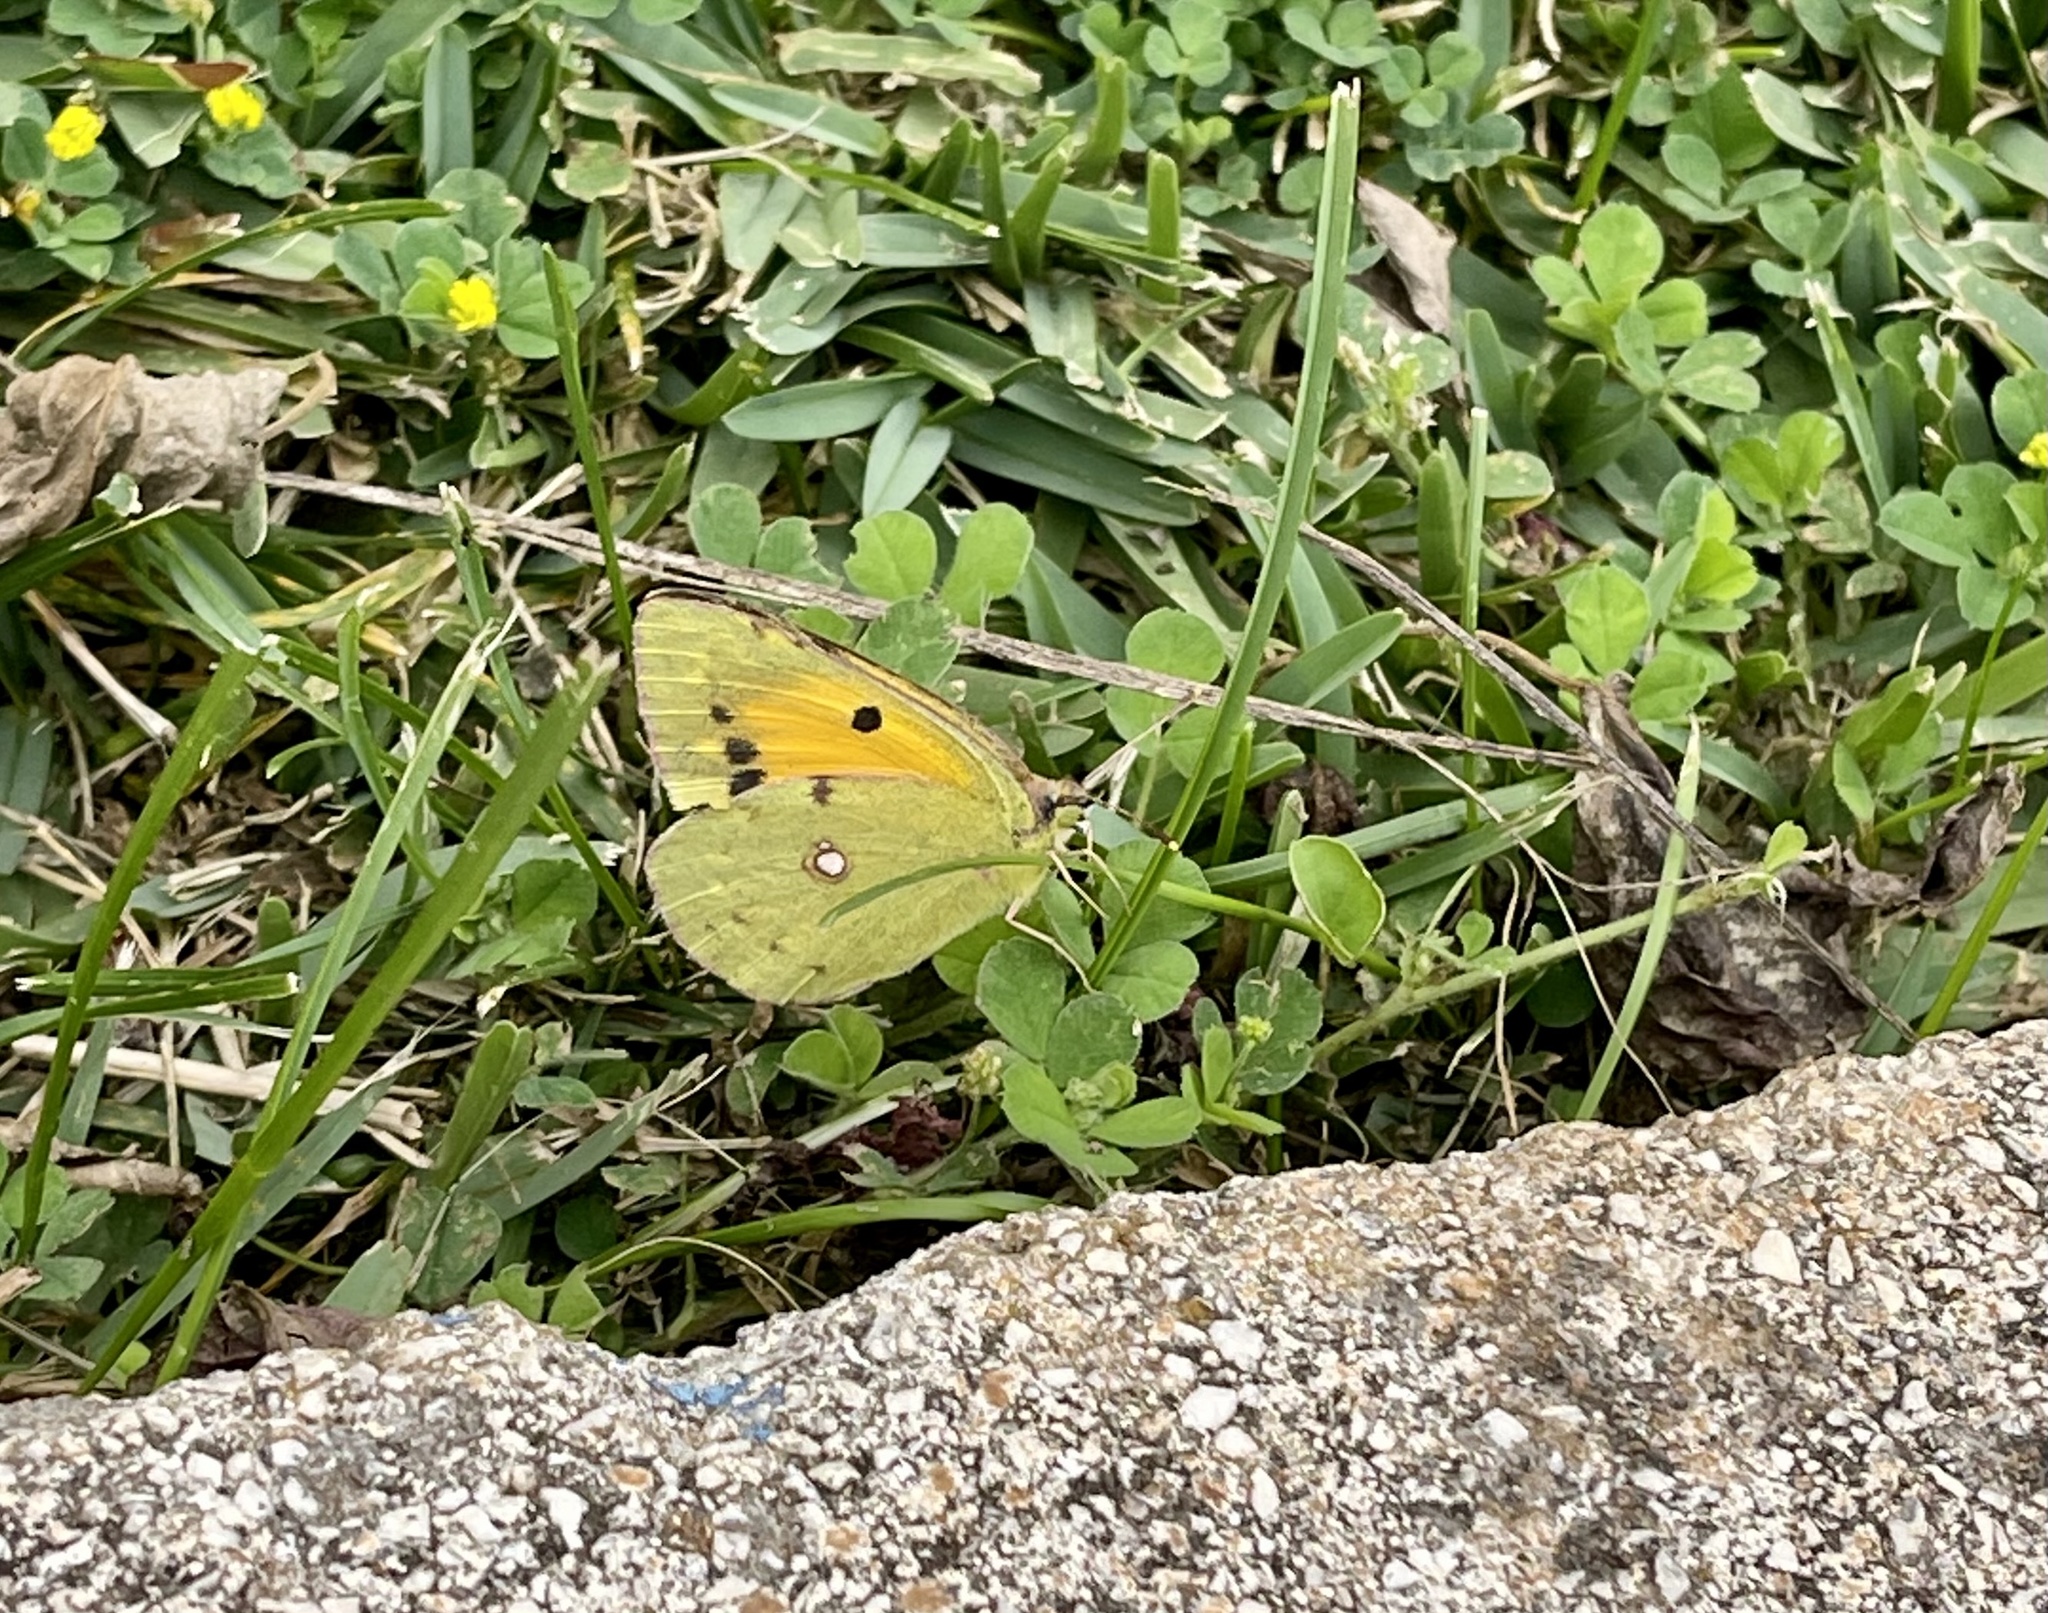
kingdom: Animalia
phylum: Arthropoda
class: Insecta
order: Lepidoptera
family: Pieridae
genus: Colias
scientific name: Colias croceus
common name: Clouded yellow
